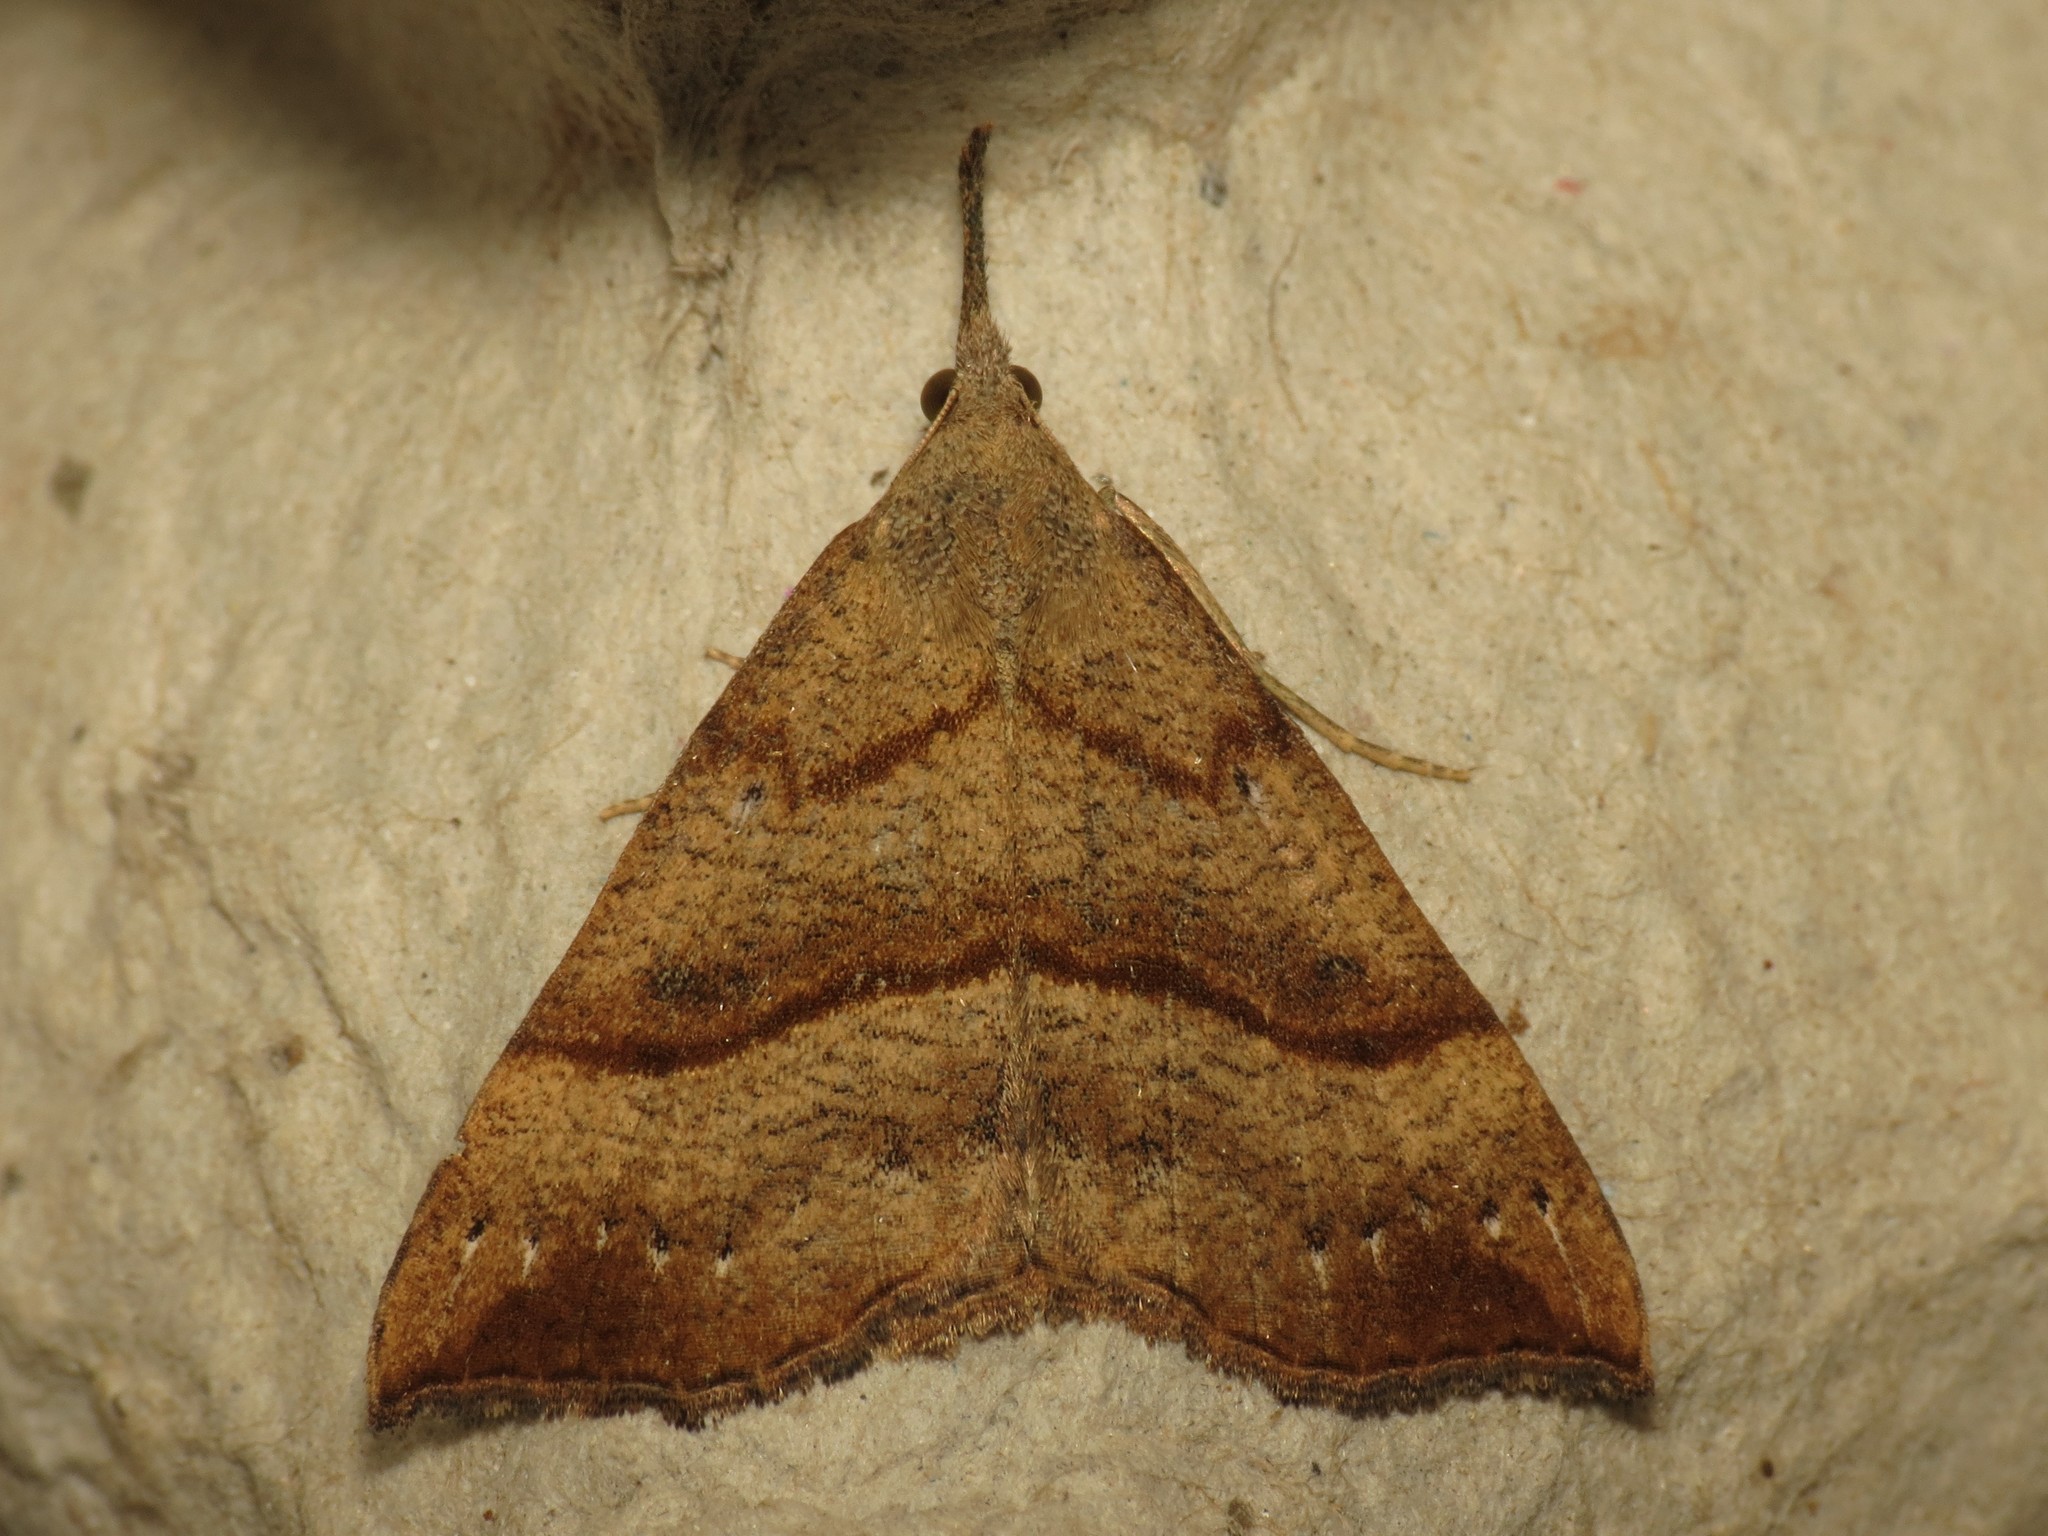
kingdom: Animalia
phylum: Arthropoda
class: Insecta
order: Lepidoptera
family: Erebidae
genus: Hypena
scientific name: Hypena proboscidalis
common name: Snout
